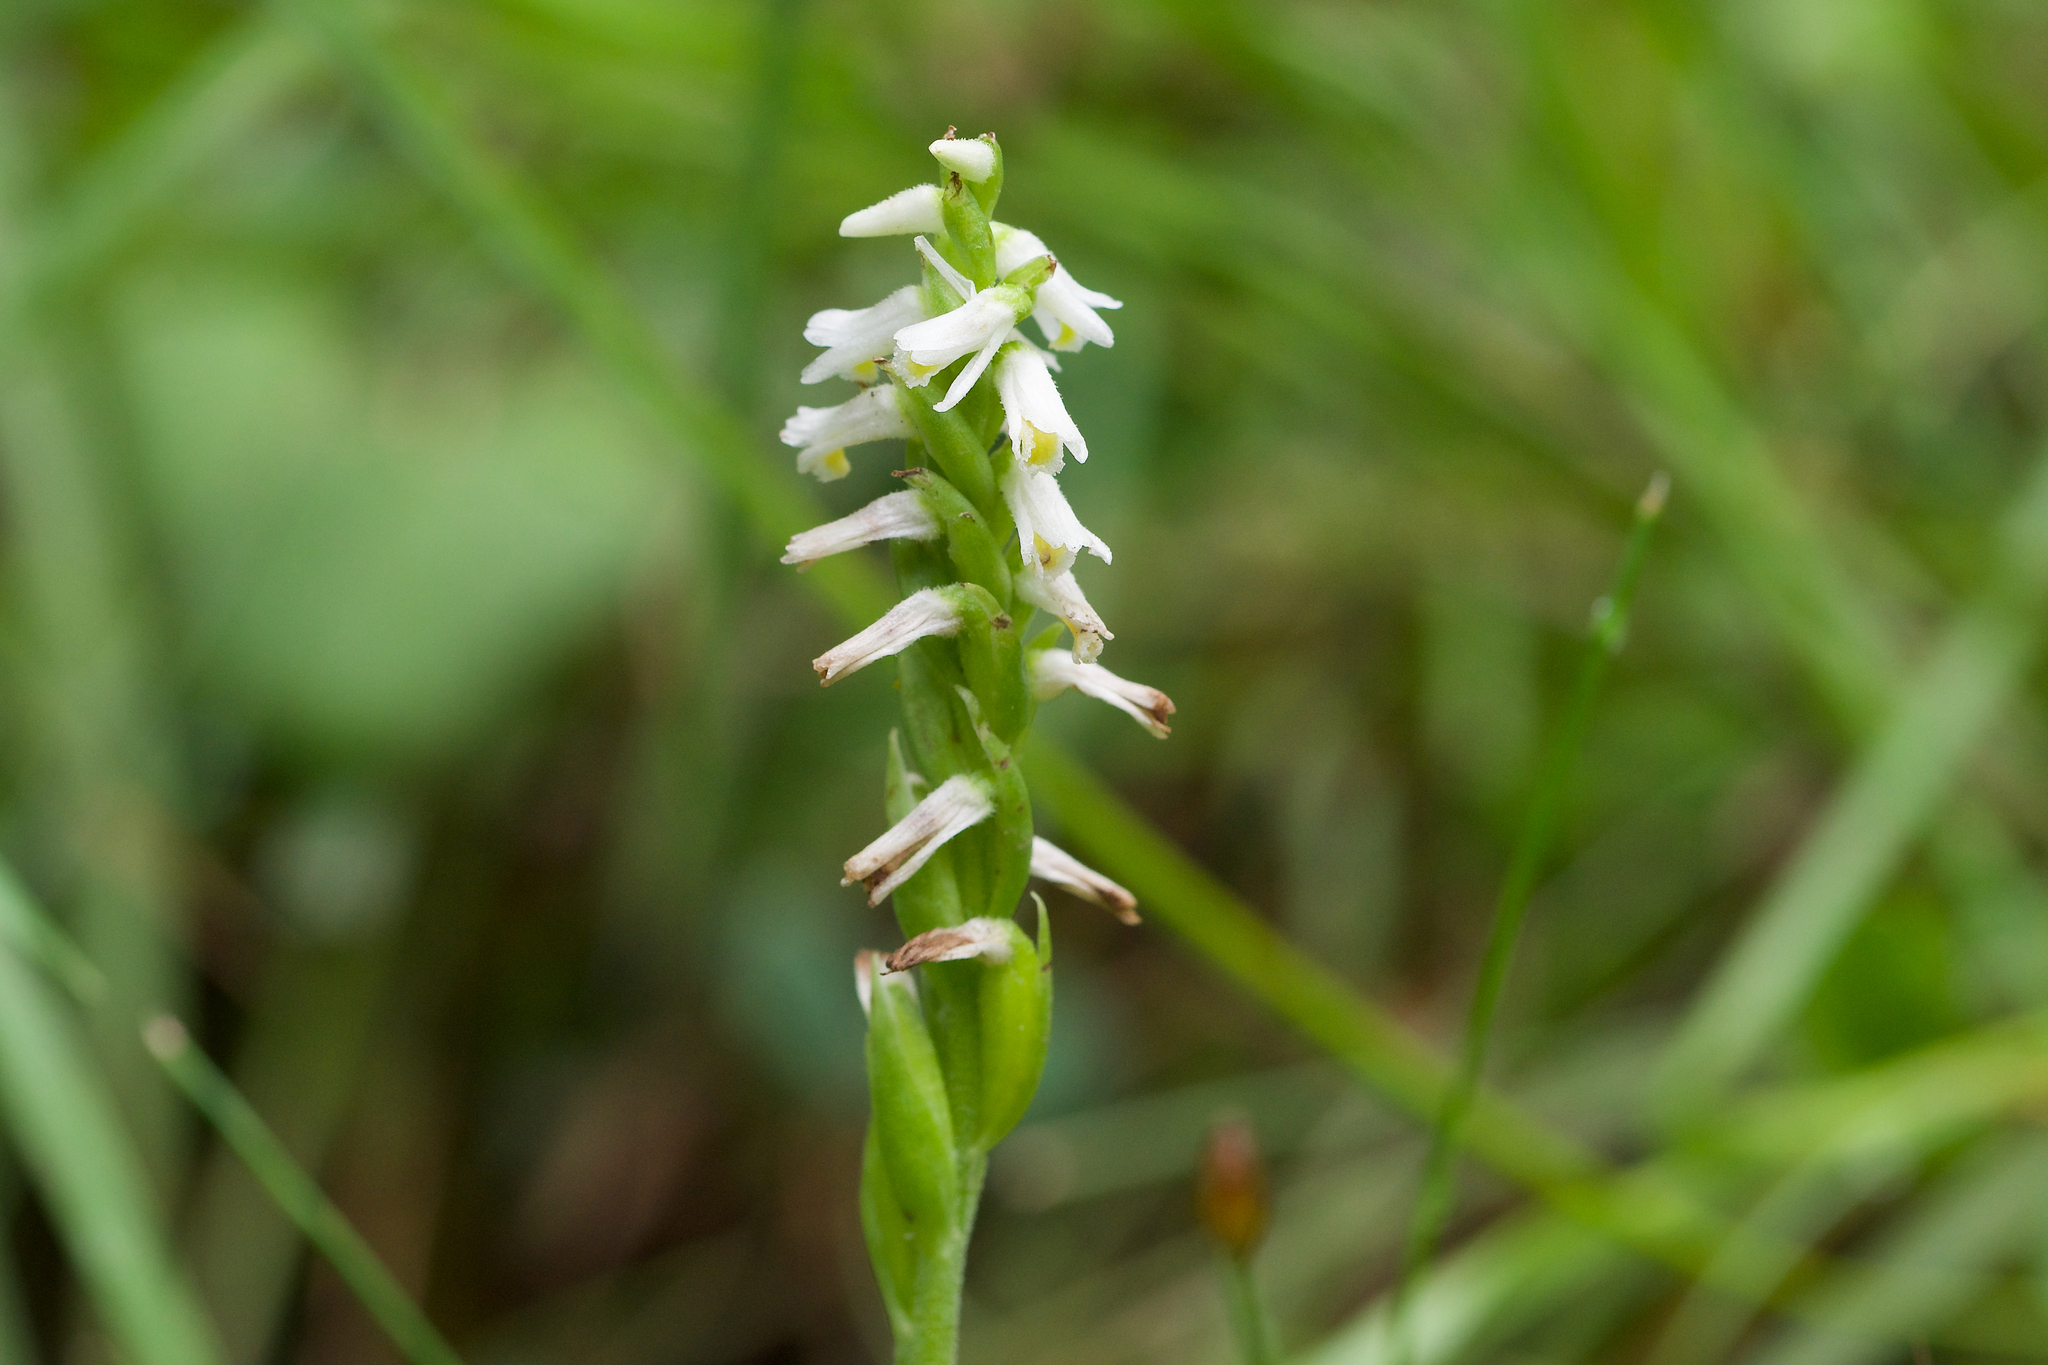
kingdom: Plantae
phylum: Tracheophyta
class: Liliopsida
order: Asparagales
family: Orchidaceae
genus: Spiranthes
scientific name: Spiranthes lucida
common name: Broad-leaved ladies'-tresses
